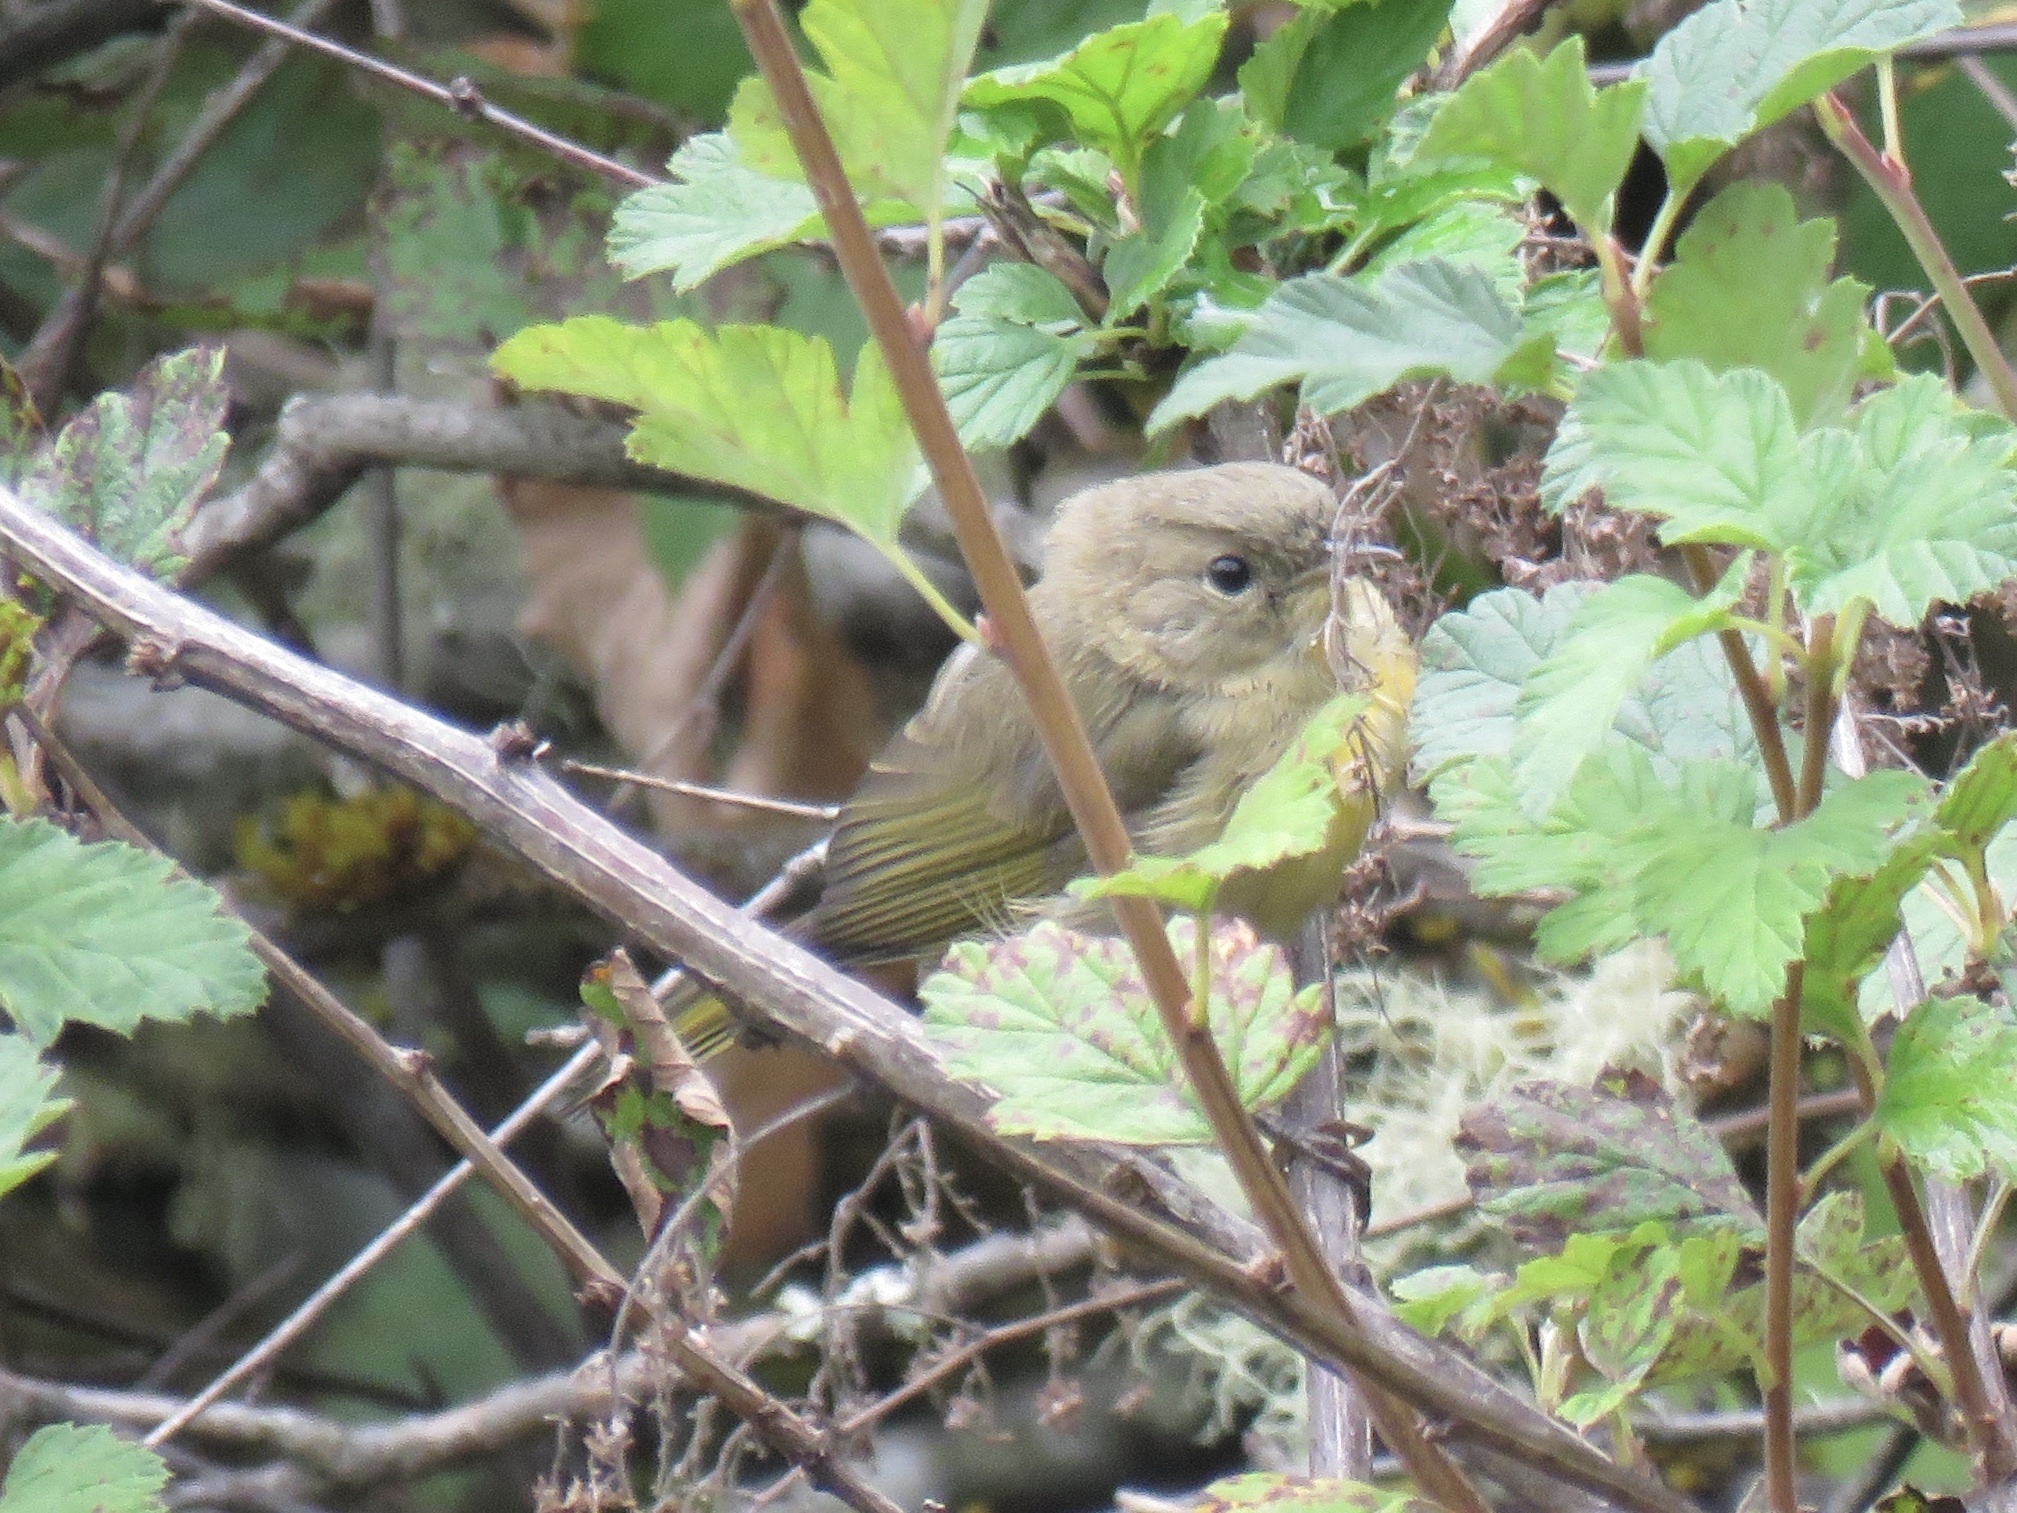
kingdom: Animalia
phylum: Chordata
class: Aves
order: Passeriformes
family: Parulidae
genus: Geothlypis
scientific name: Geothlypis trichas
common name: Common yellowthroat
